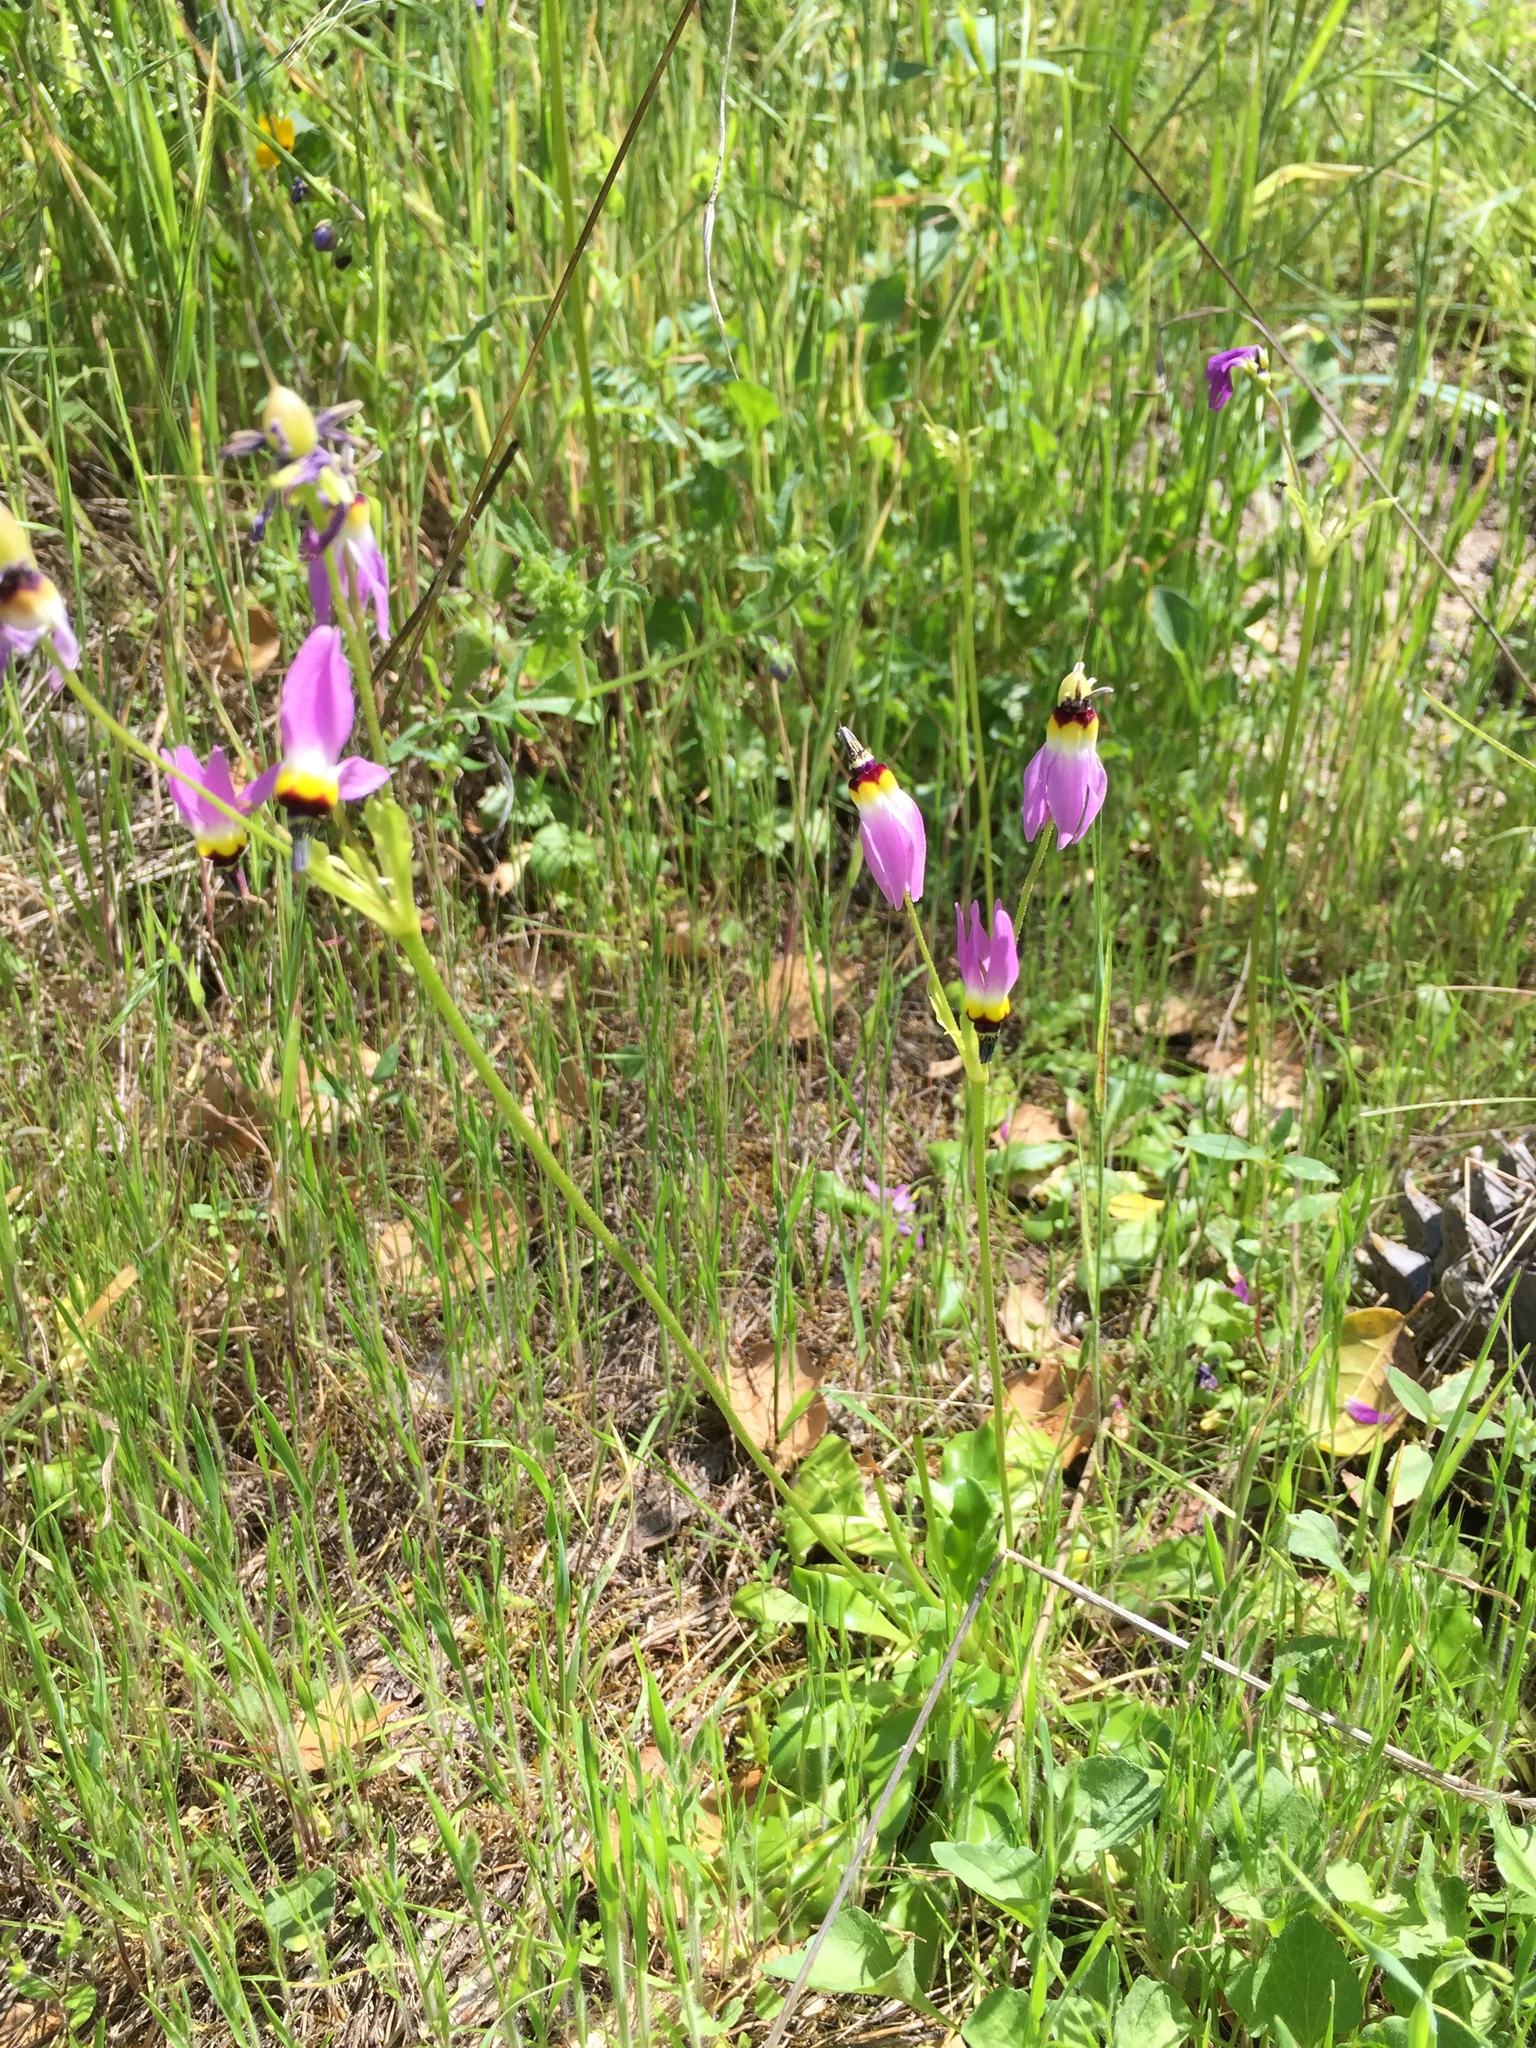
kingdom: Plantae
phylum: Tracheophyta
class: Magnoliopsida
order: Ericales
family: Primulaceae
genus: Dodecatheon
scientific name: Dodecatheon clevelandii
